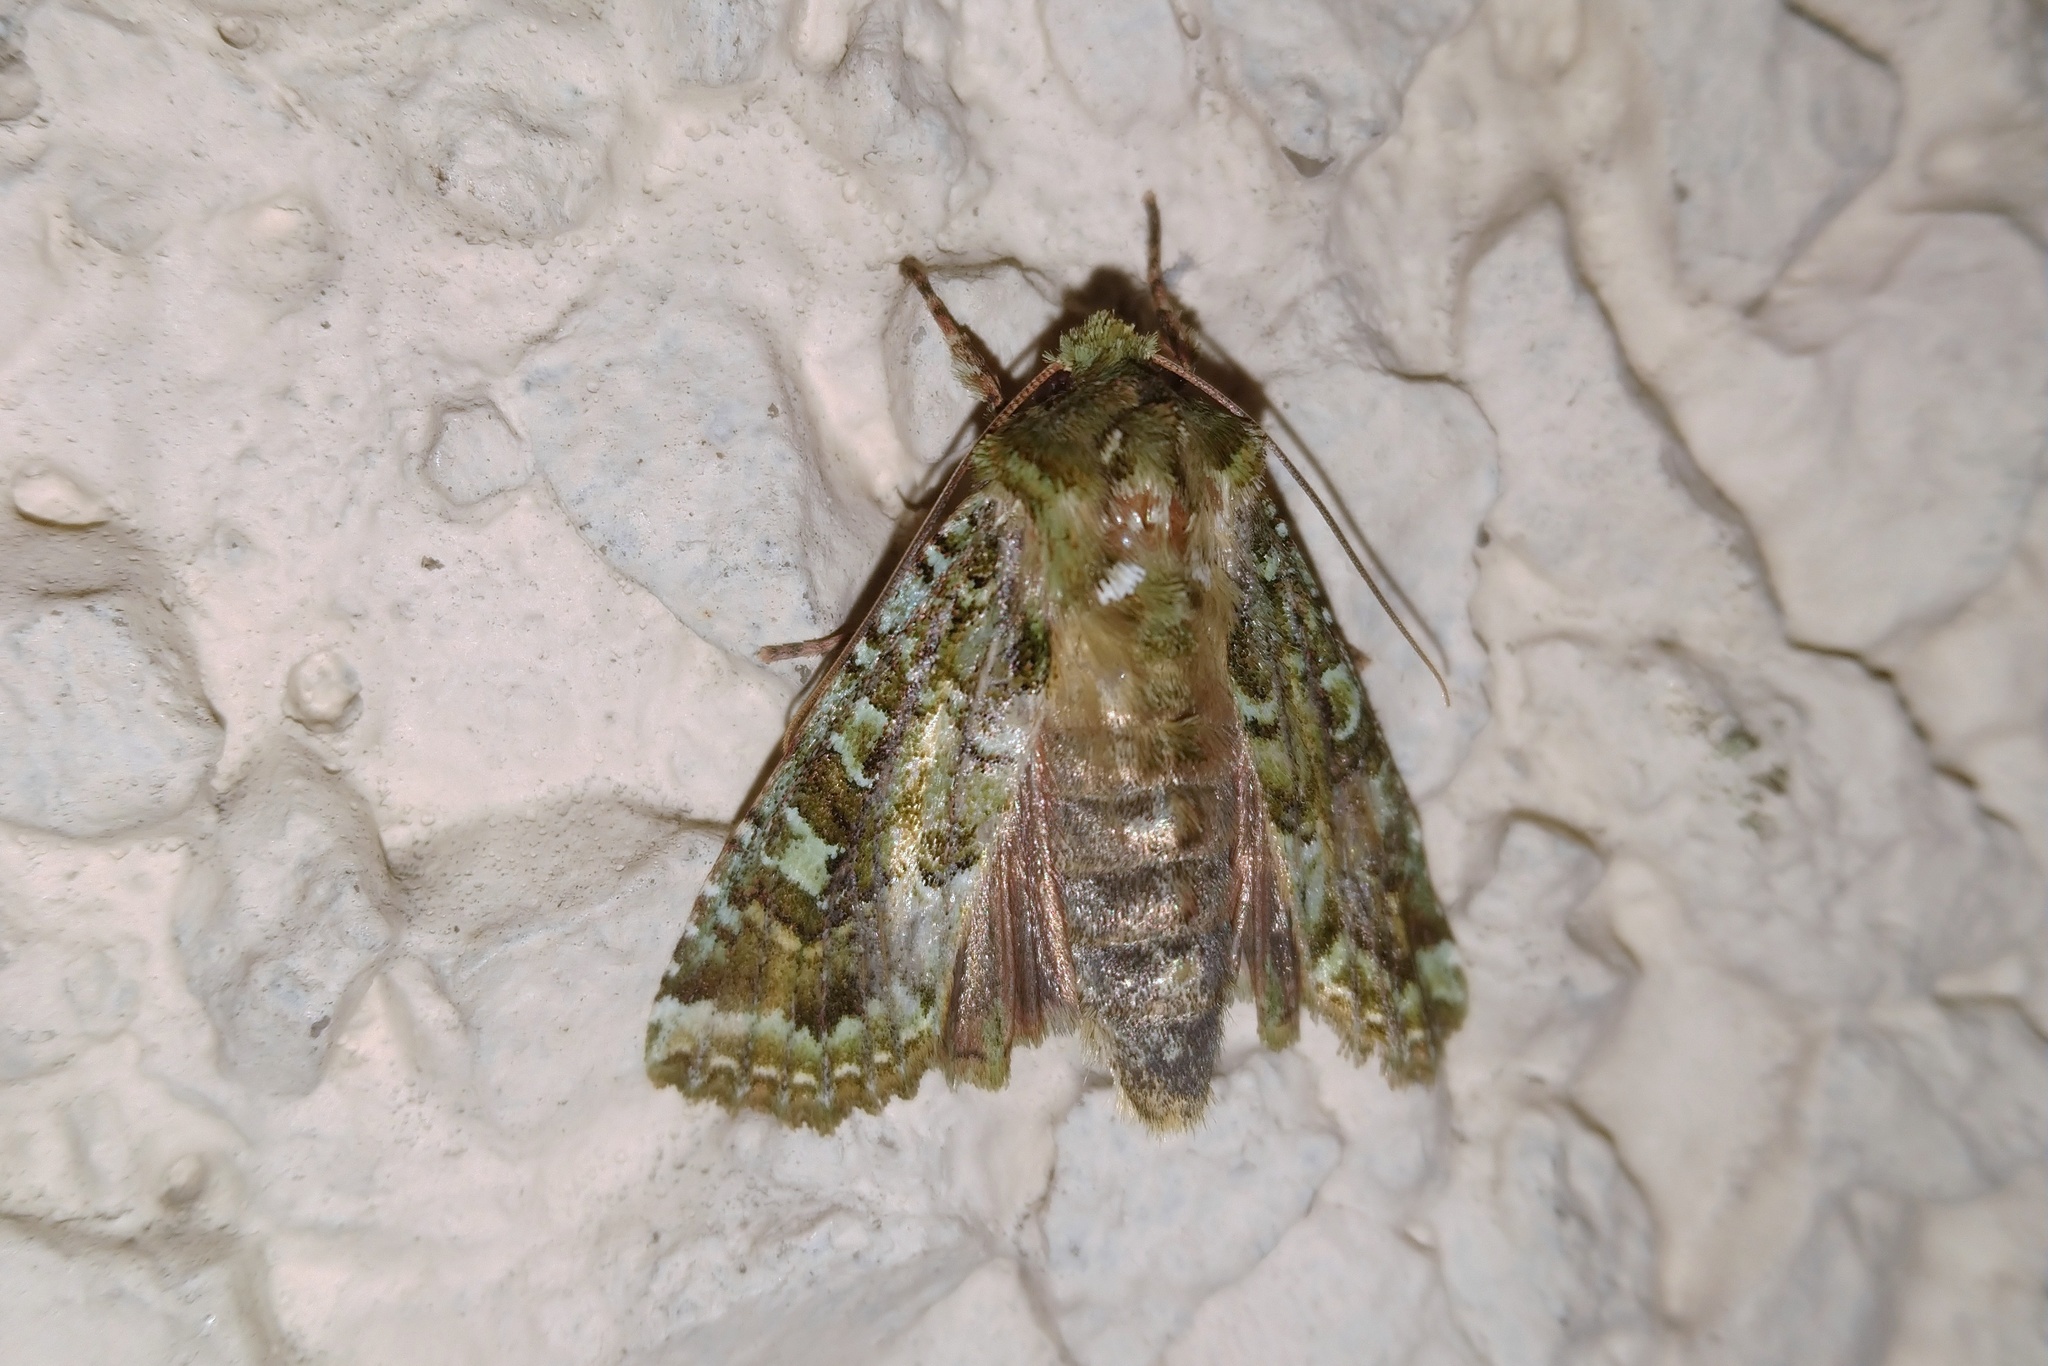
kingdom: Animalia
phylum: Arthropoda
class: Insecta
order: Lepidoptera
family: Noctuidae
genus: Feredayia
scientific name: Feredayia grammosa
